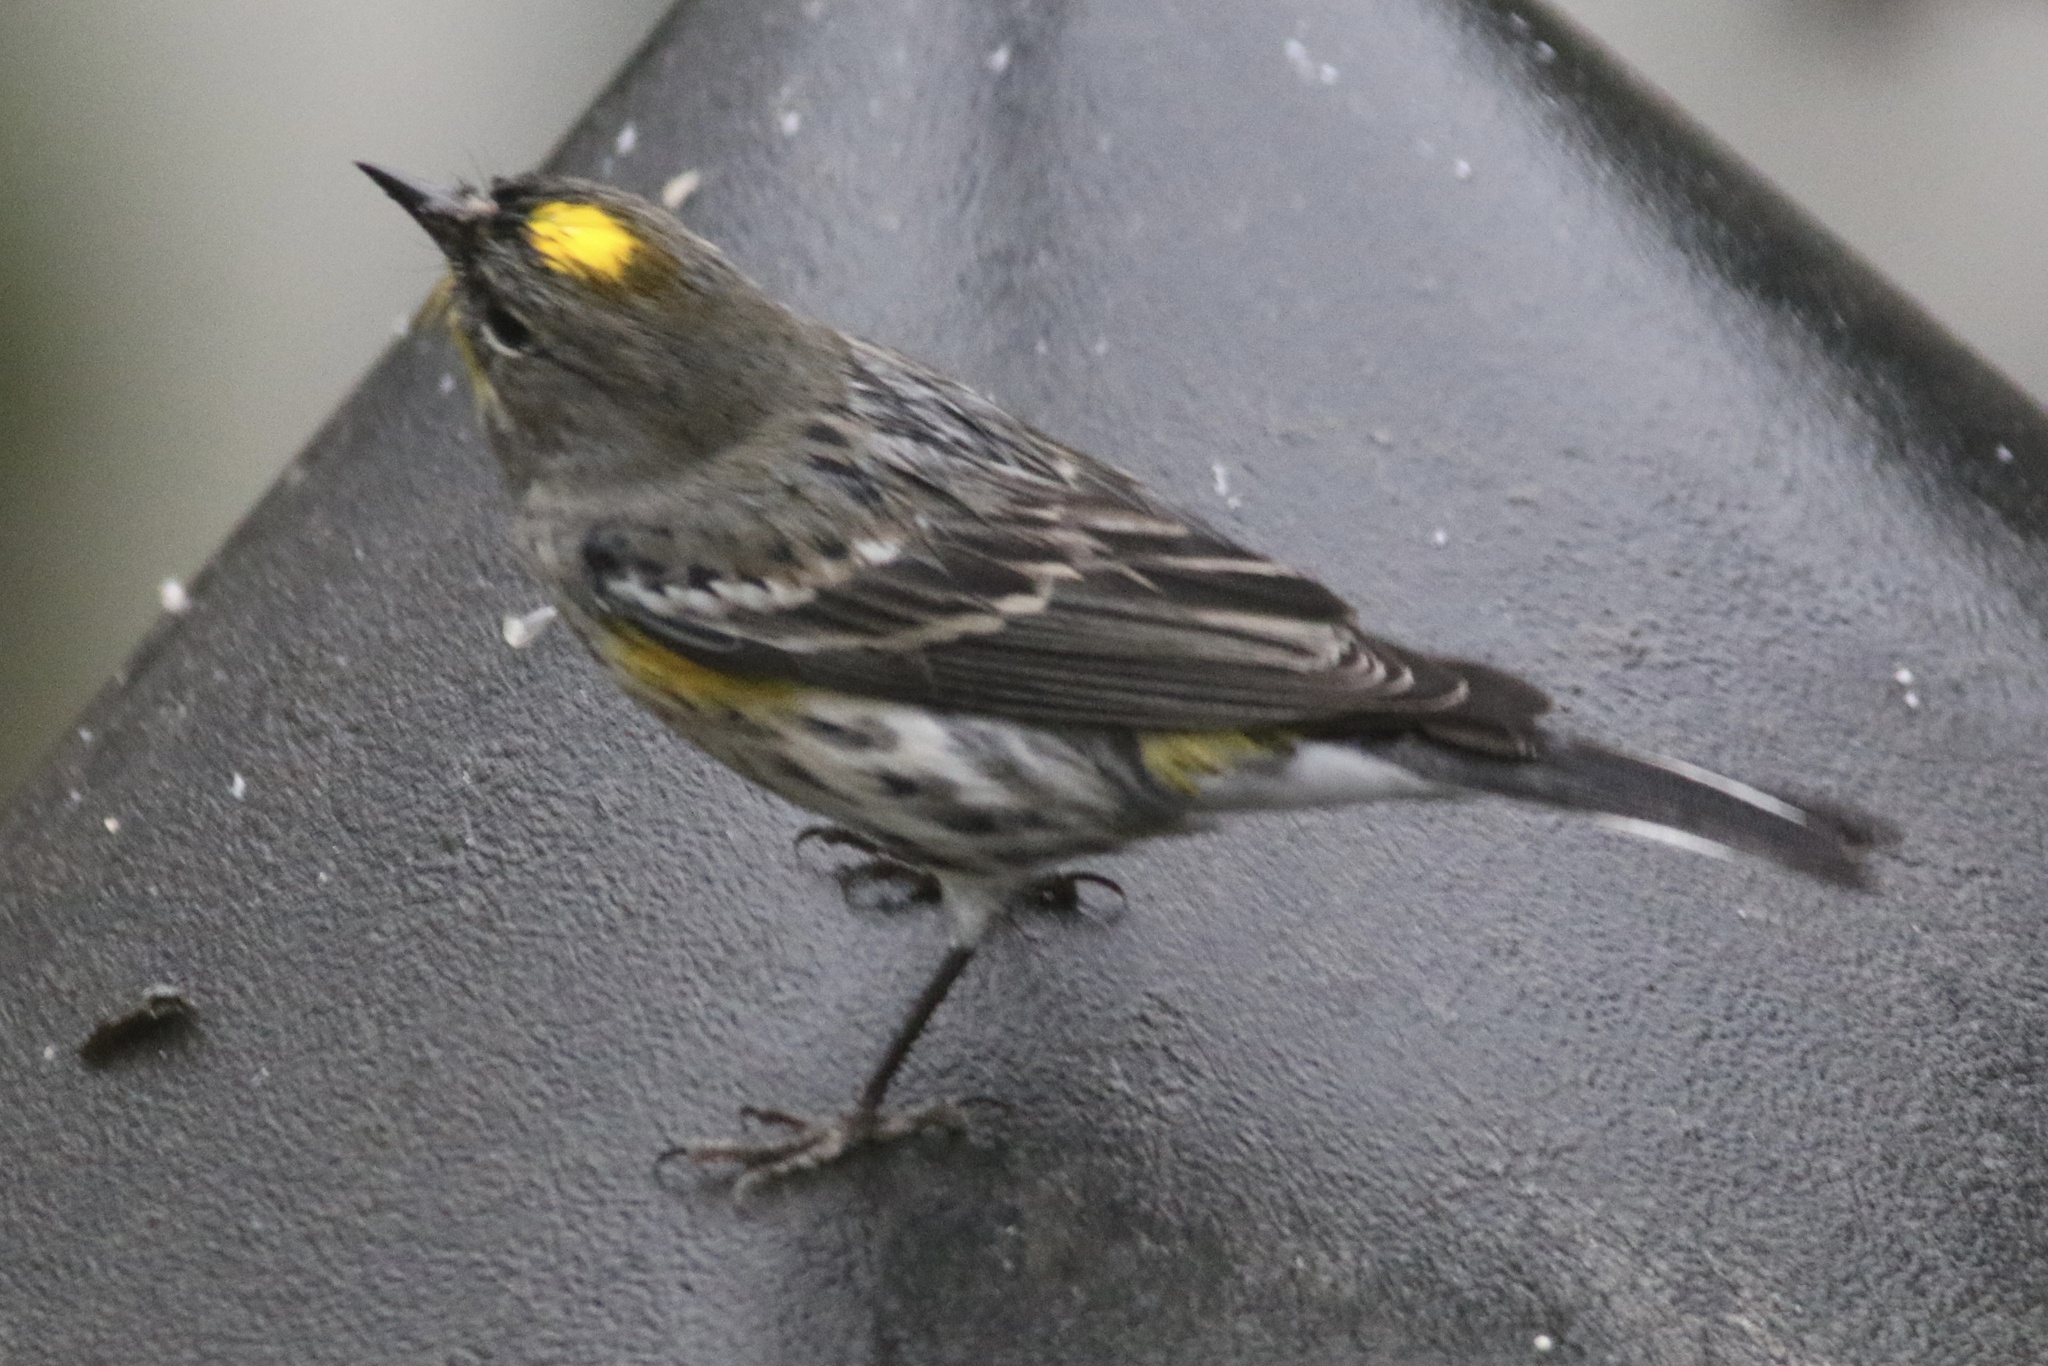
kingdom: Animalia
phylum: Chordata
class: Aves
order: Passeriformes
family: Parulidae
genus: Setophaga
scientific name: Setophaga coronata
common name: Myrtle warbler
